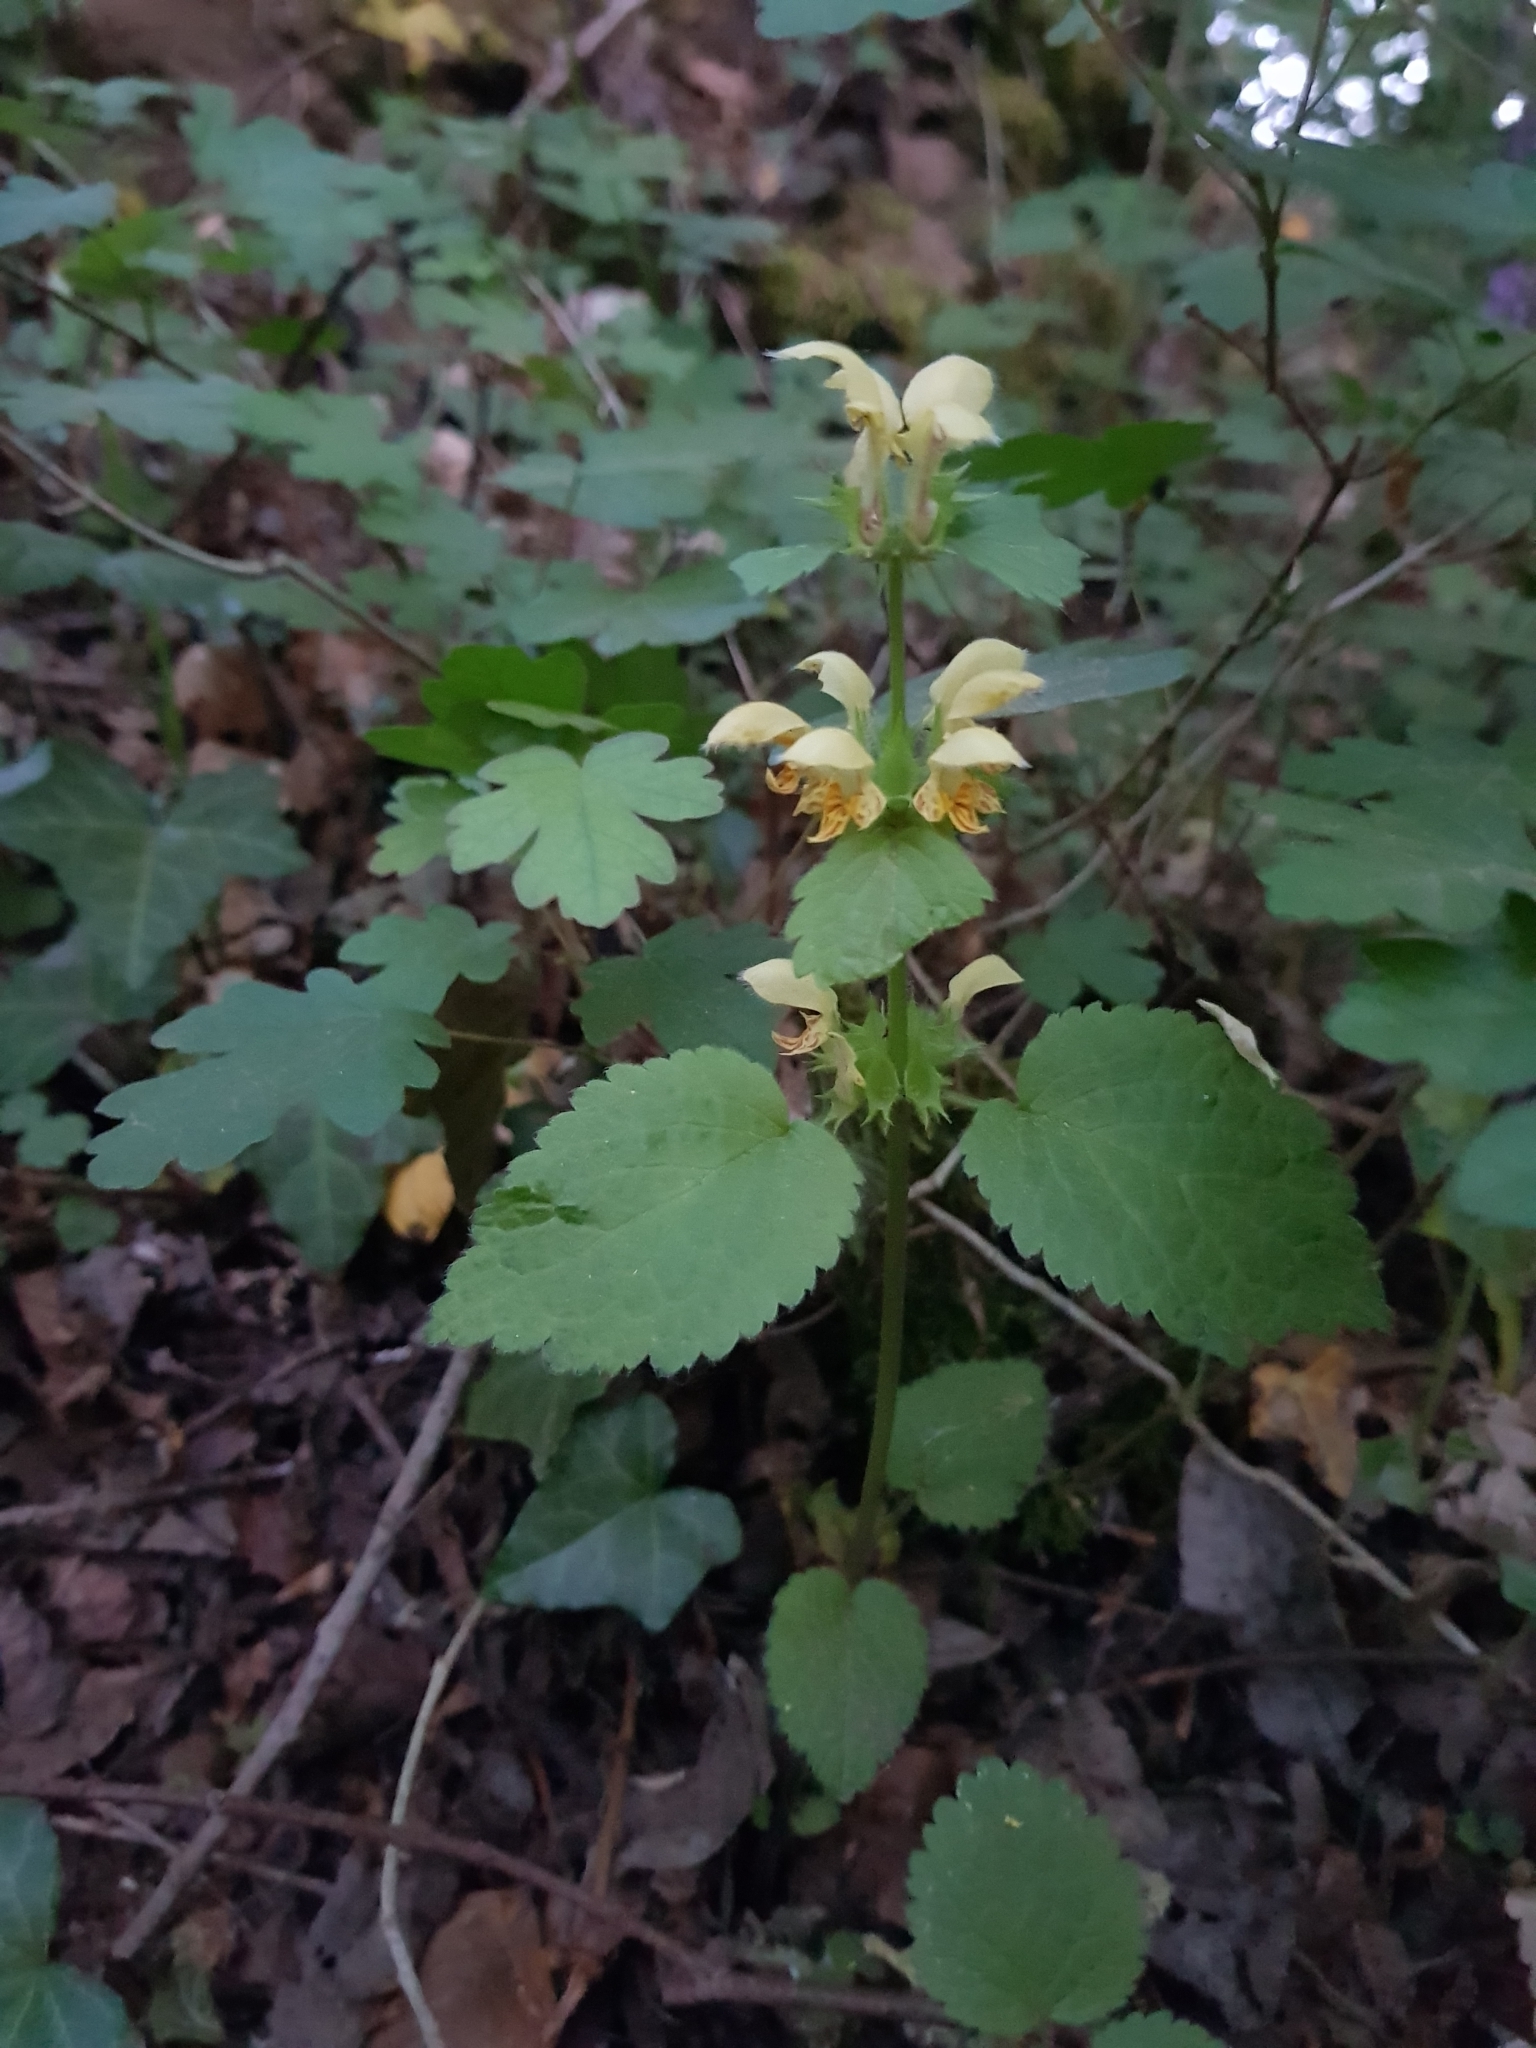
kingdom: Plantae
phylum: Tracheophyta
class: Magnoliopsida
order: Lamiales
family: Lamiaceae
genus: Lamium
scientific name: Lamium galeobdolon
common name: Yellow archangel
